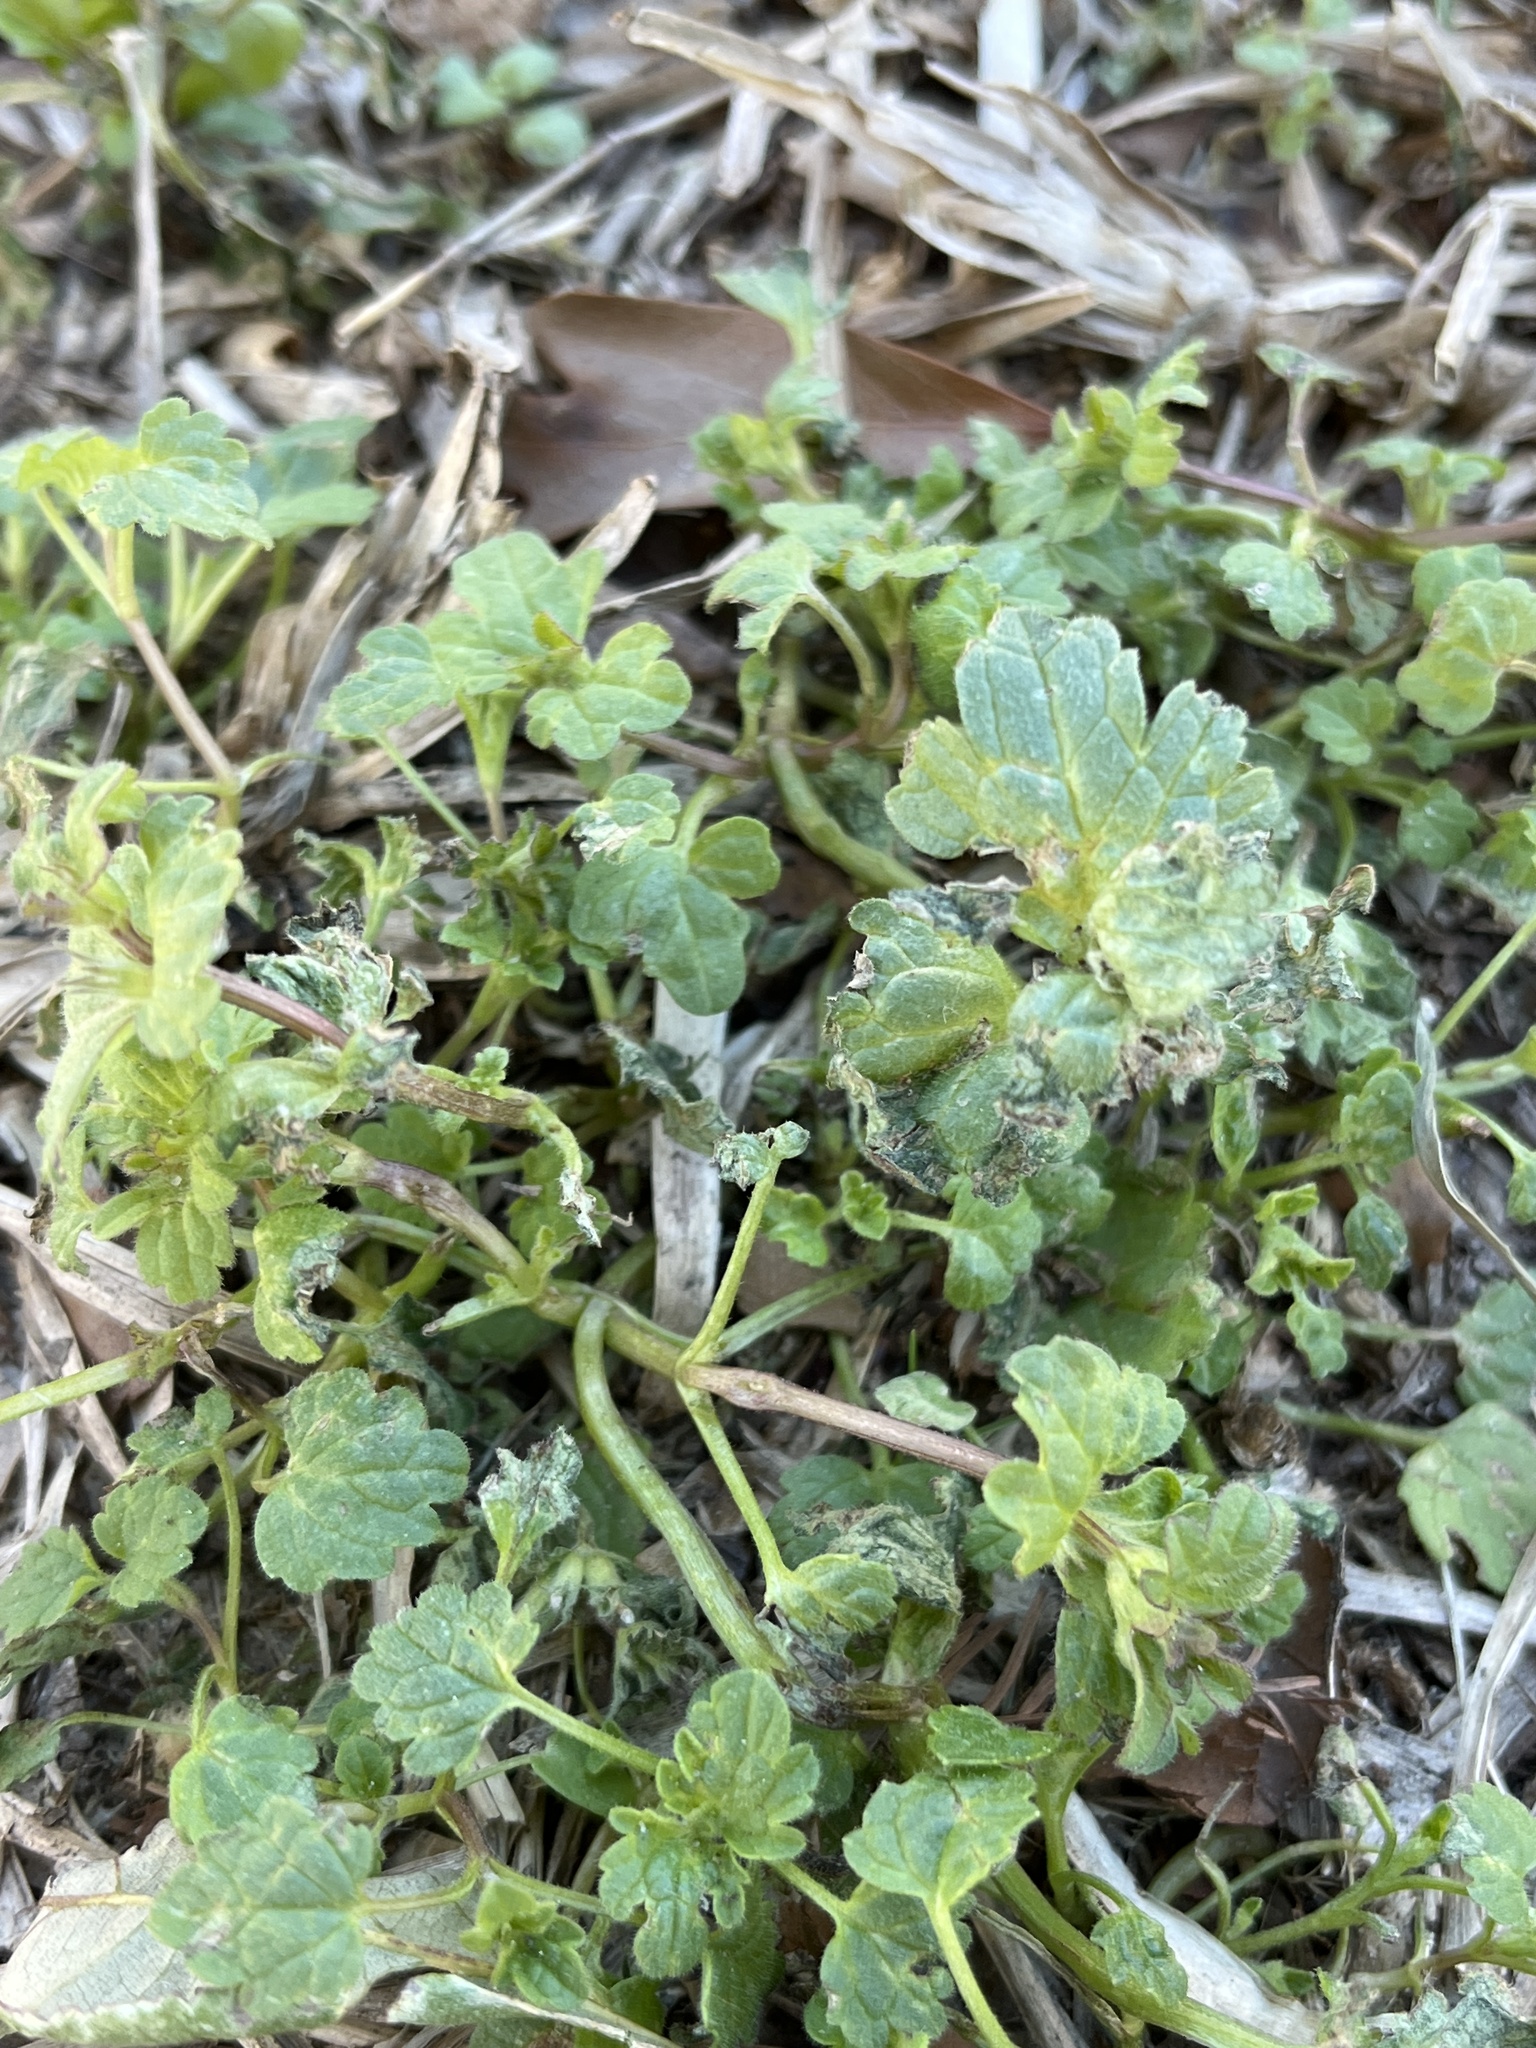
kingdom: Plantae
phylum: Tracheophyta
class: Magnoliopsida
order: Lamiales
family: Lamiaceae
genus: Lamium
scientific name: Lamium amplexicaule
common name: Henbit dead-nettle
